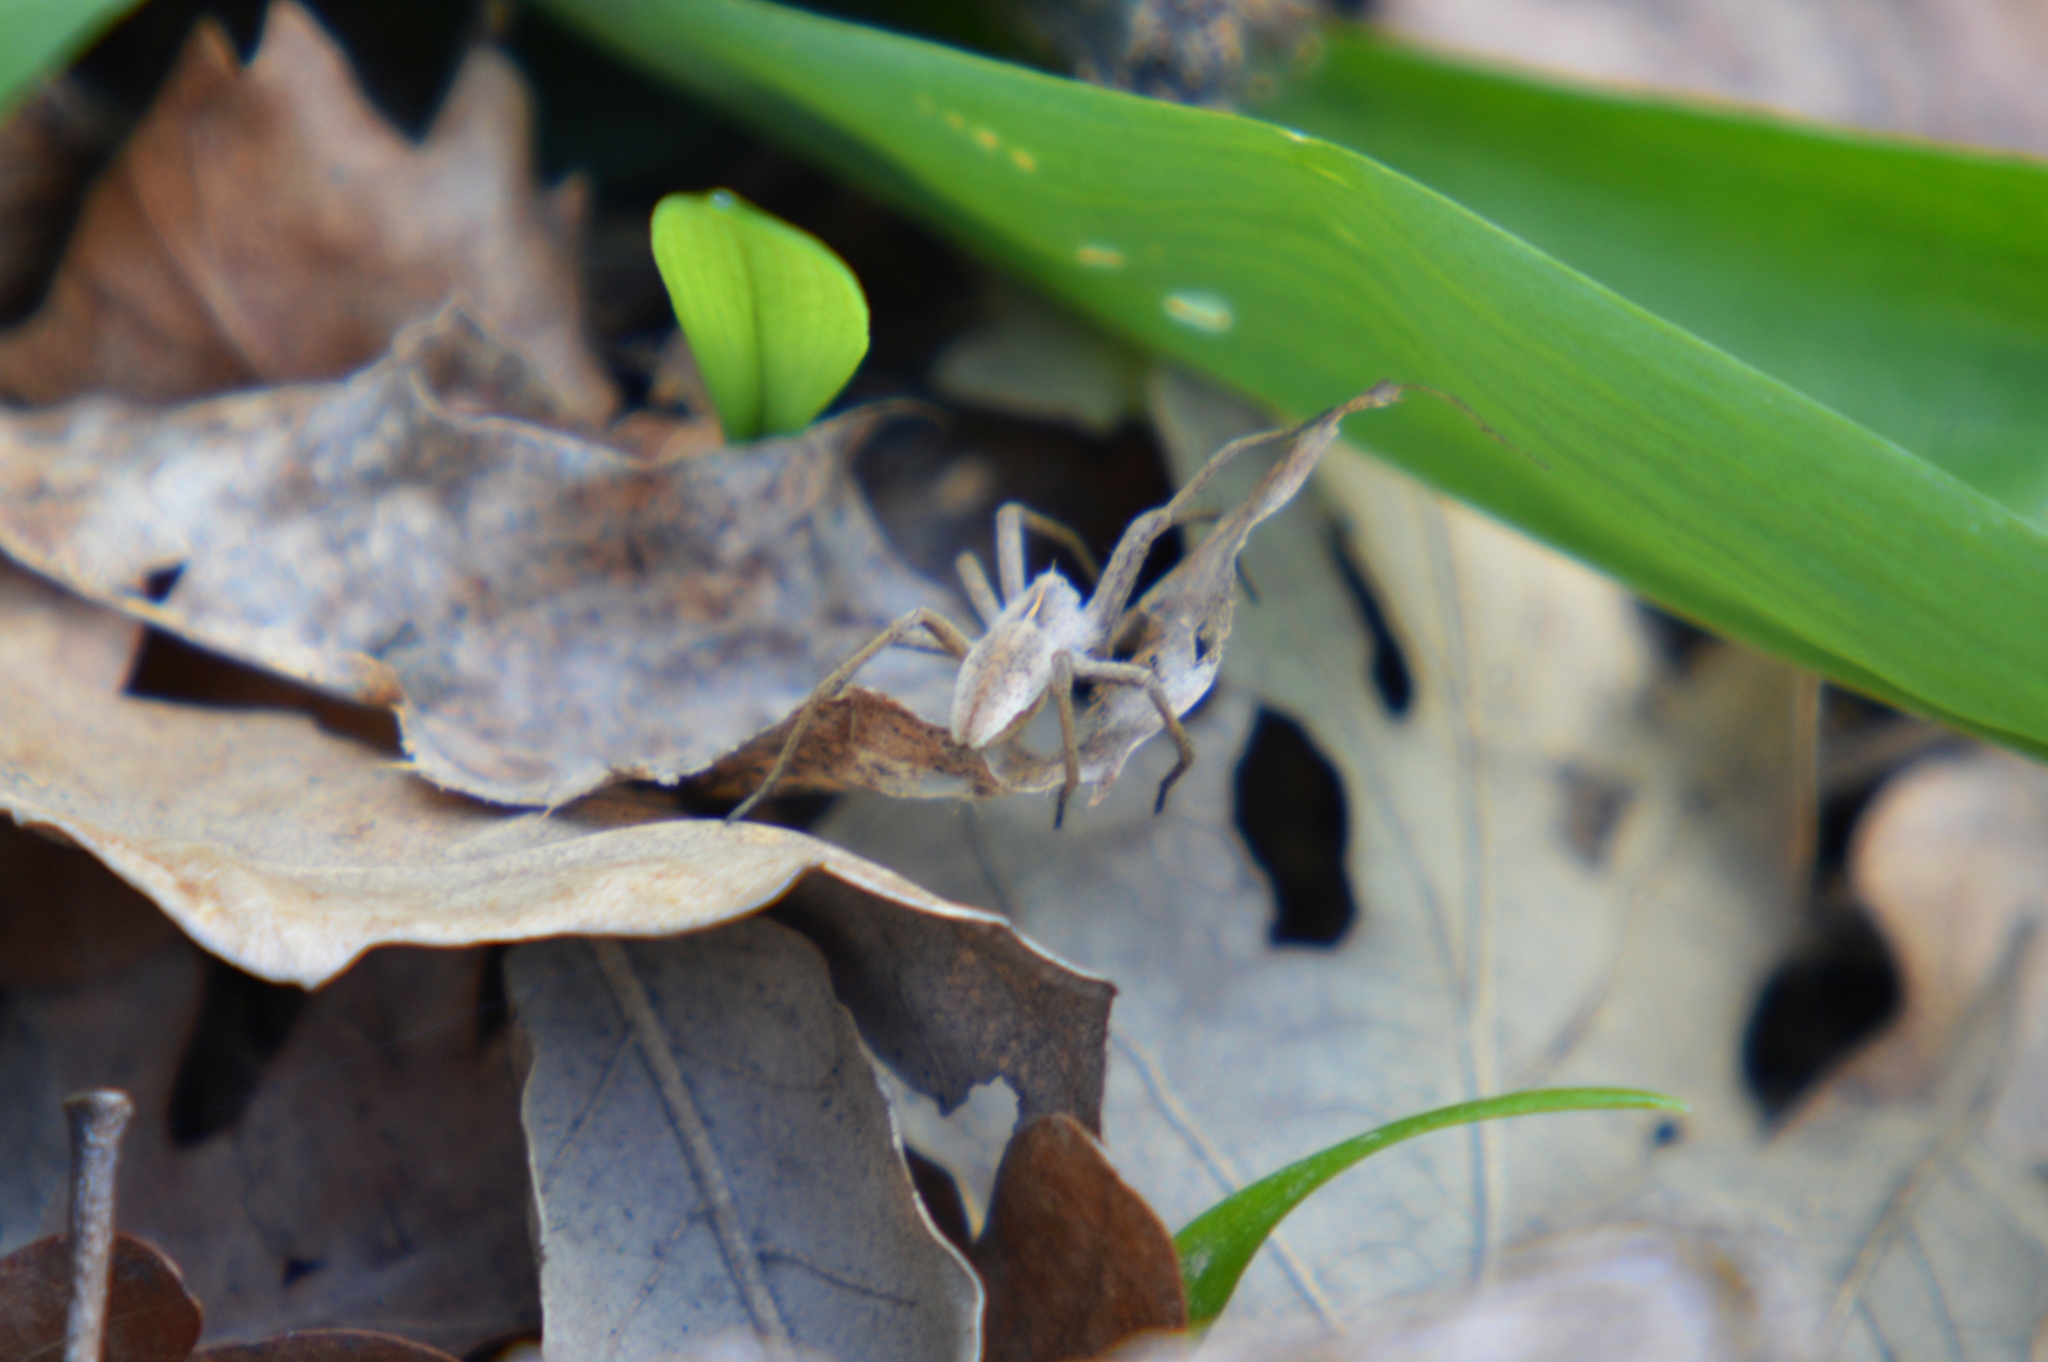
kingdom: Animalia
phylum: Arthropoda
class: Arachnida
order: Araneae
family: Pisauridae
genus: Pisaura
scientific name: Pisaura mirabilis
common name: Tent spider
